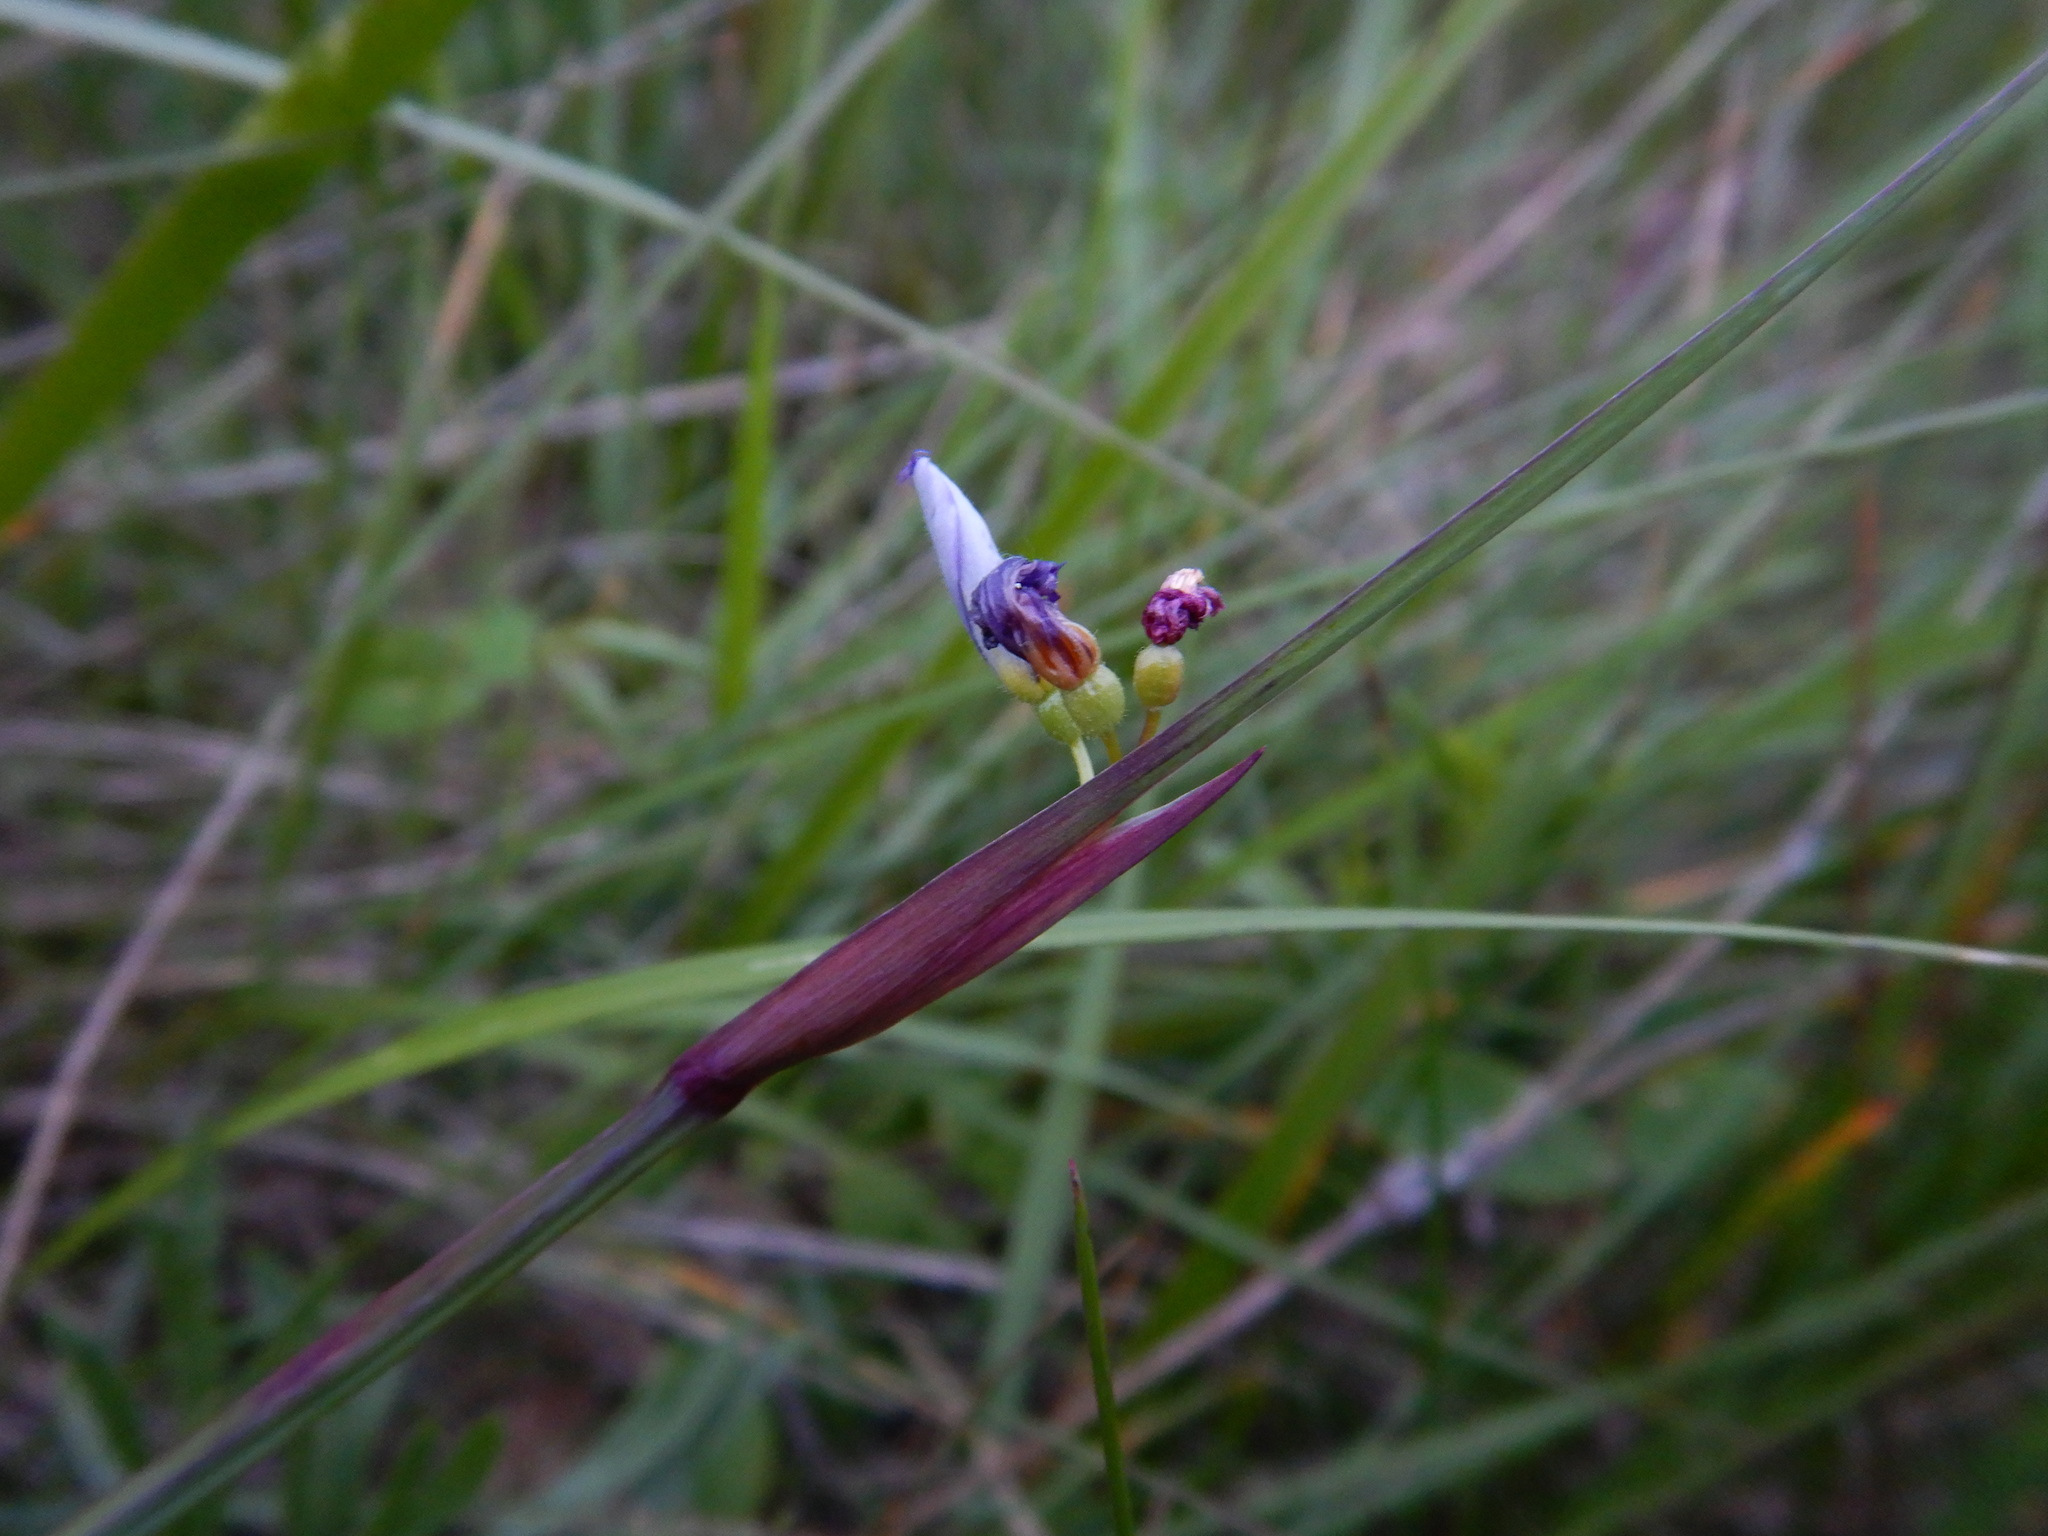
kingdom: Plantae
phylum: Tracheophyta
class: Liliopsida
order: Asparagales
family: Iridaceae
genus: Sisyrinchium
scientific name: Sisyrinchium montanum
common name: American blue-eyed-grass
